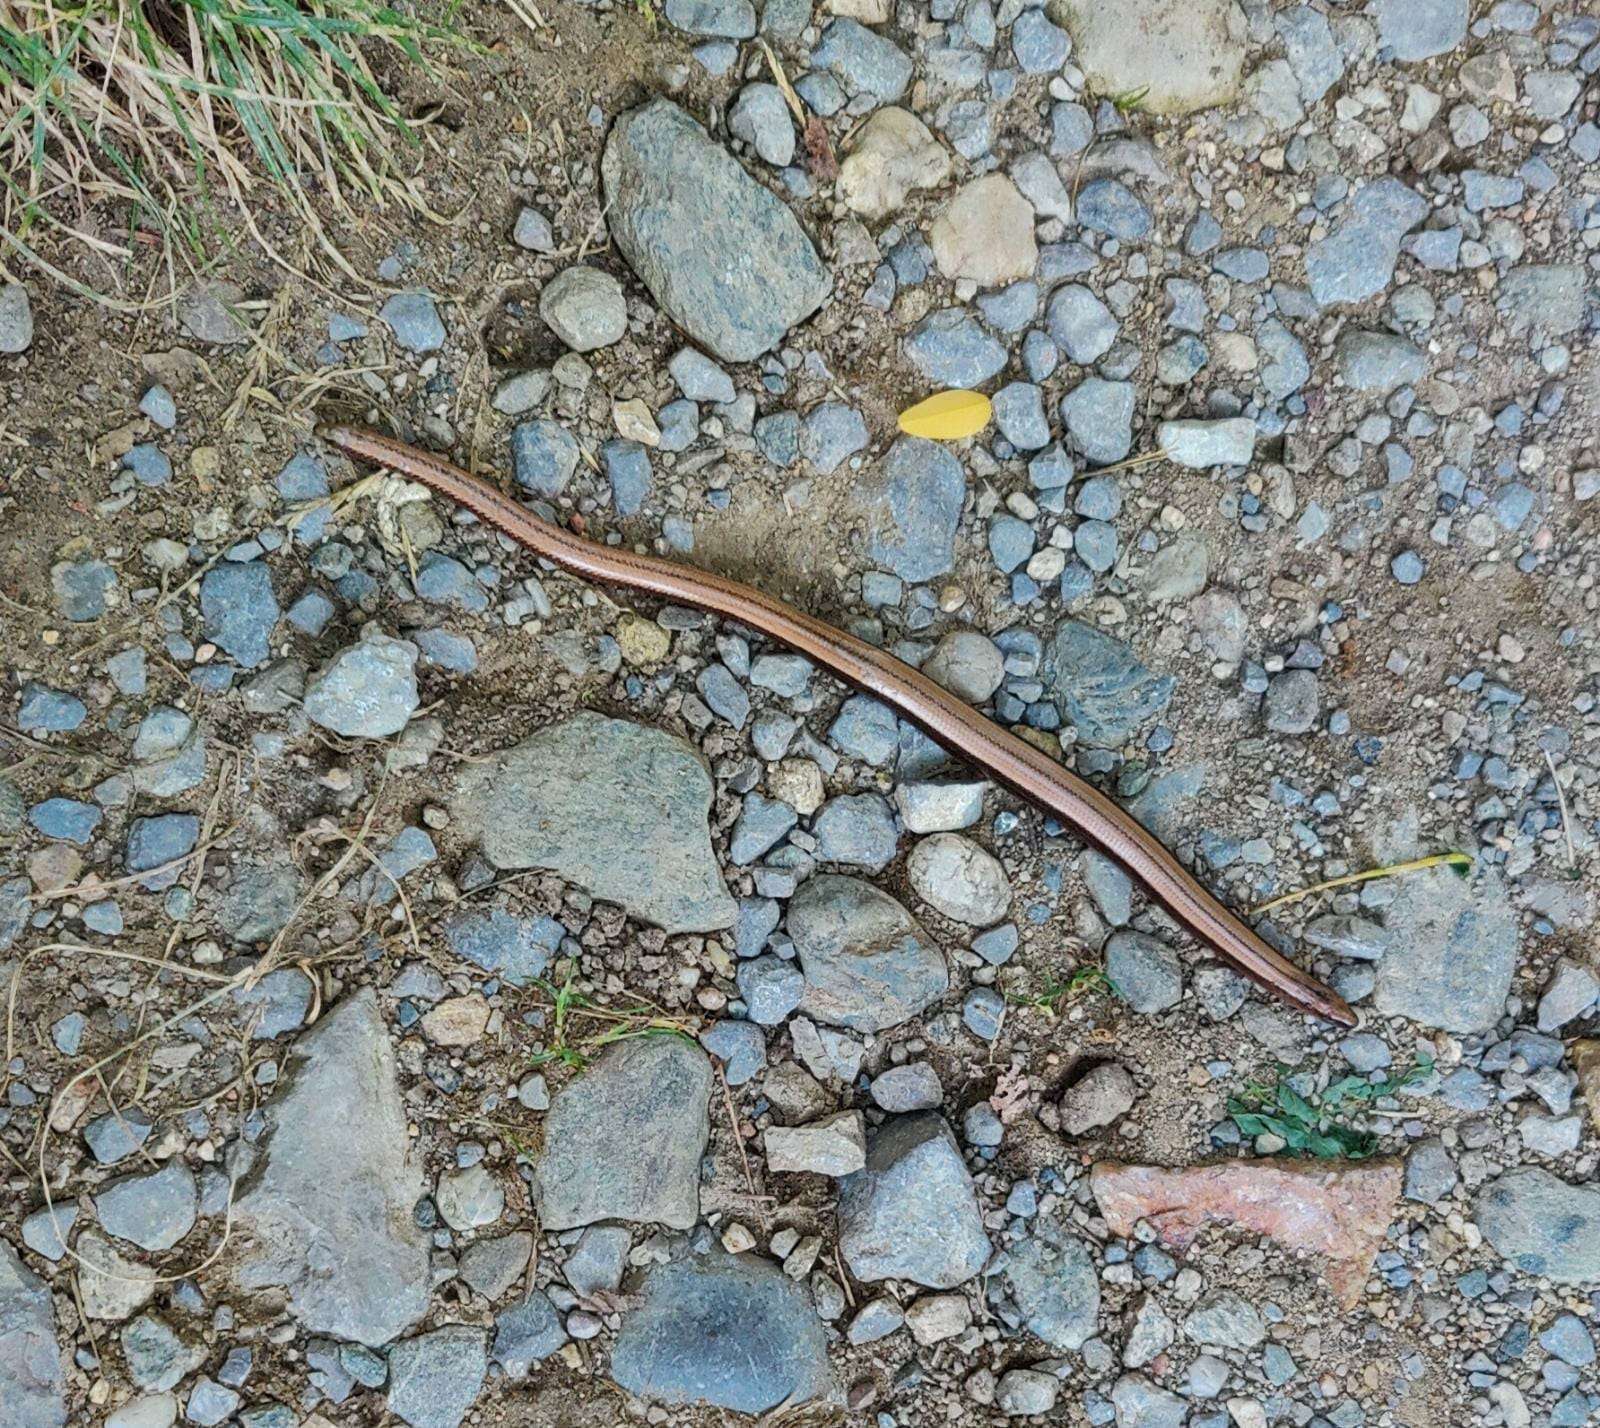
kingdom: Animalia
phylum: Chordata
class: Squamata
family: Anguidae
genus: Anguis
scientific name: Anguis fragilis
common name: Slow worm
